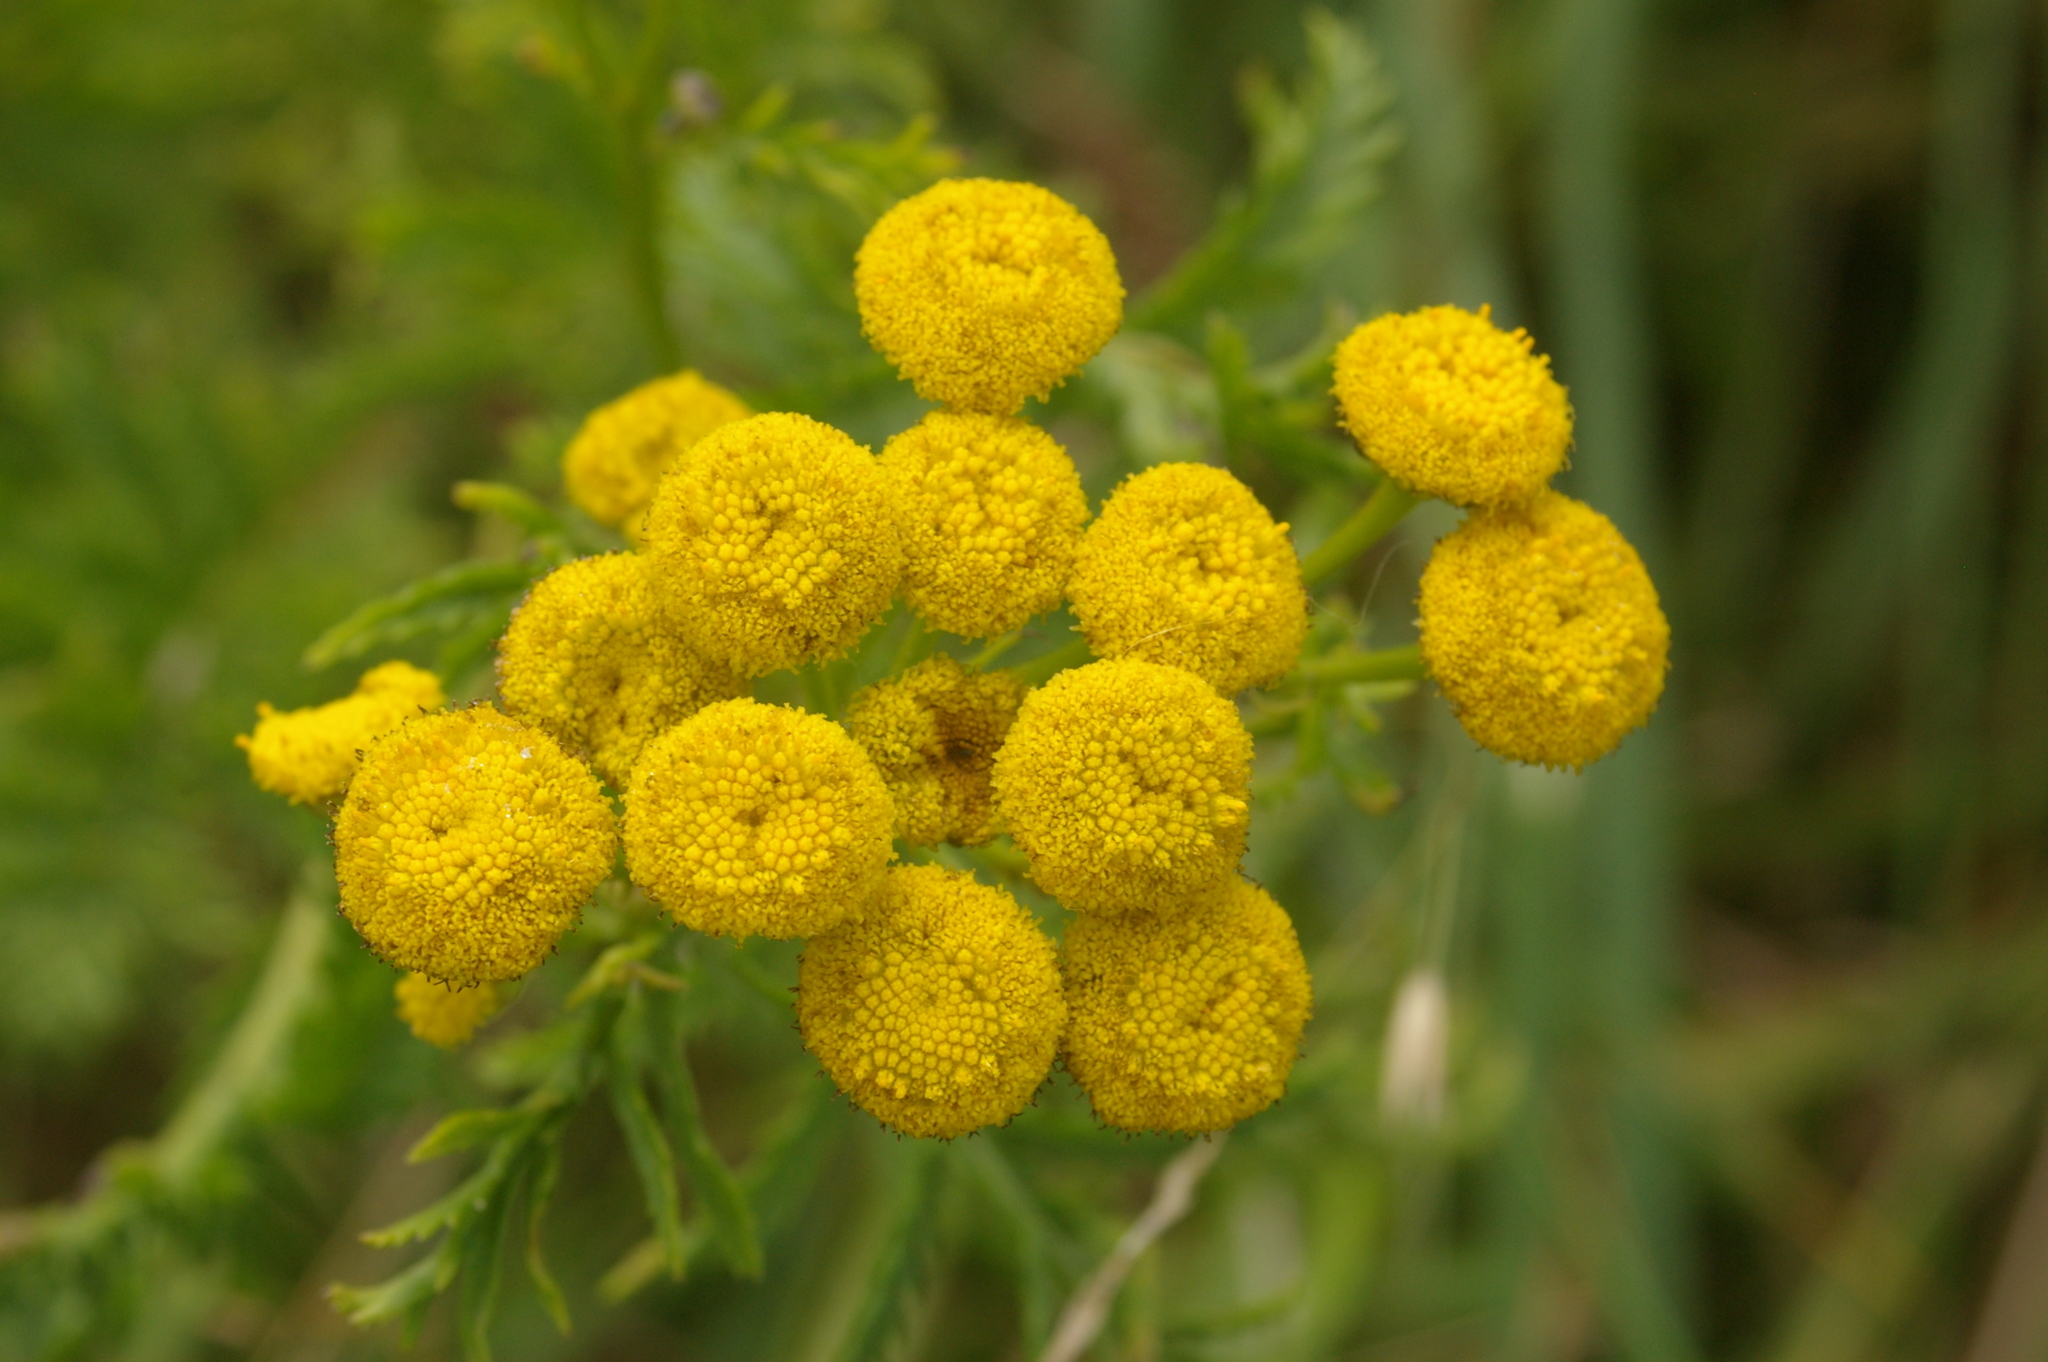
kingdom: Plantae
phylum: Tracheophyta
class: Magnoliopsida
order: Asterales
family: Asteraceae
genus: Tanacetum
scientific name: Tanacetum vulgare
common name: Common tansy
